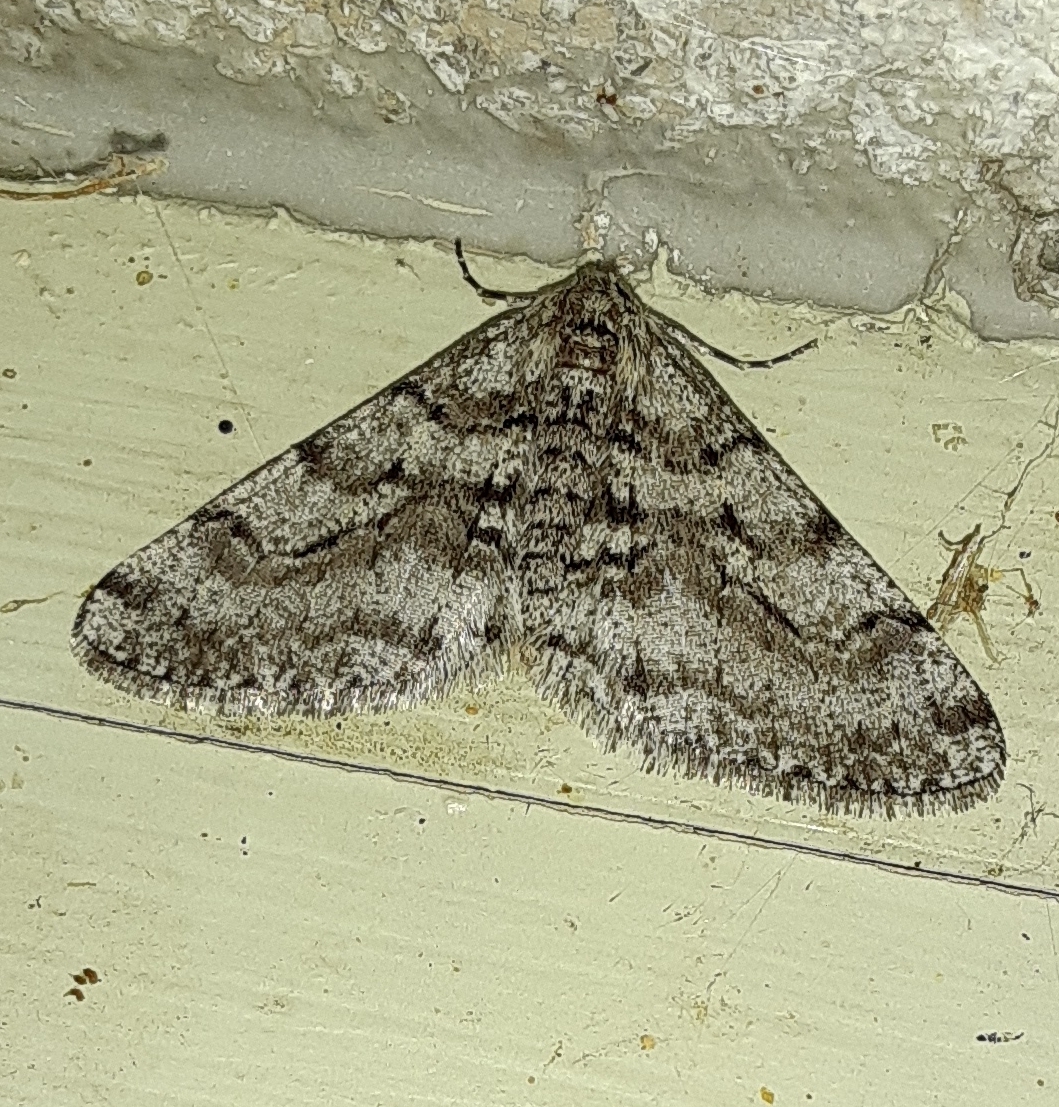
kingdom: Animalia
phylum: Arthropoda
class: Insecta
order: Lepidoptera
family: Geometridae
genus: Phigalia
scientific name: Phigalia titea
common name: Spiny looper
